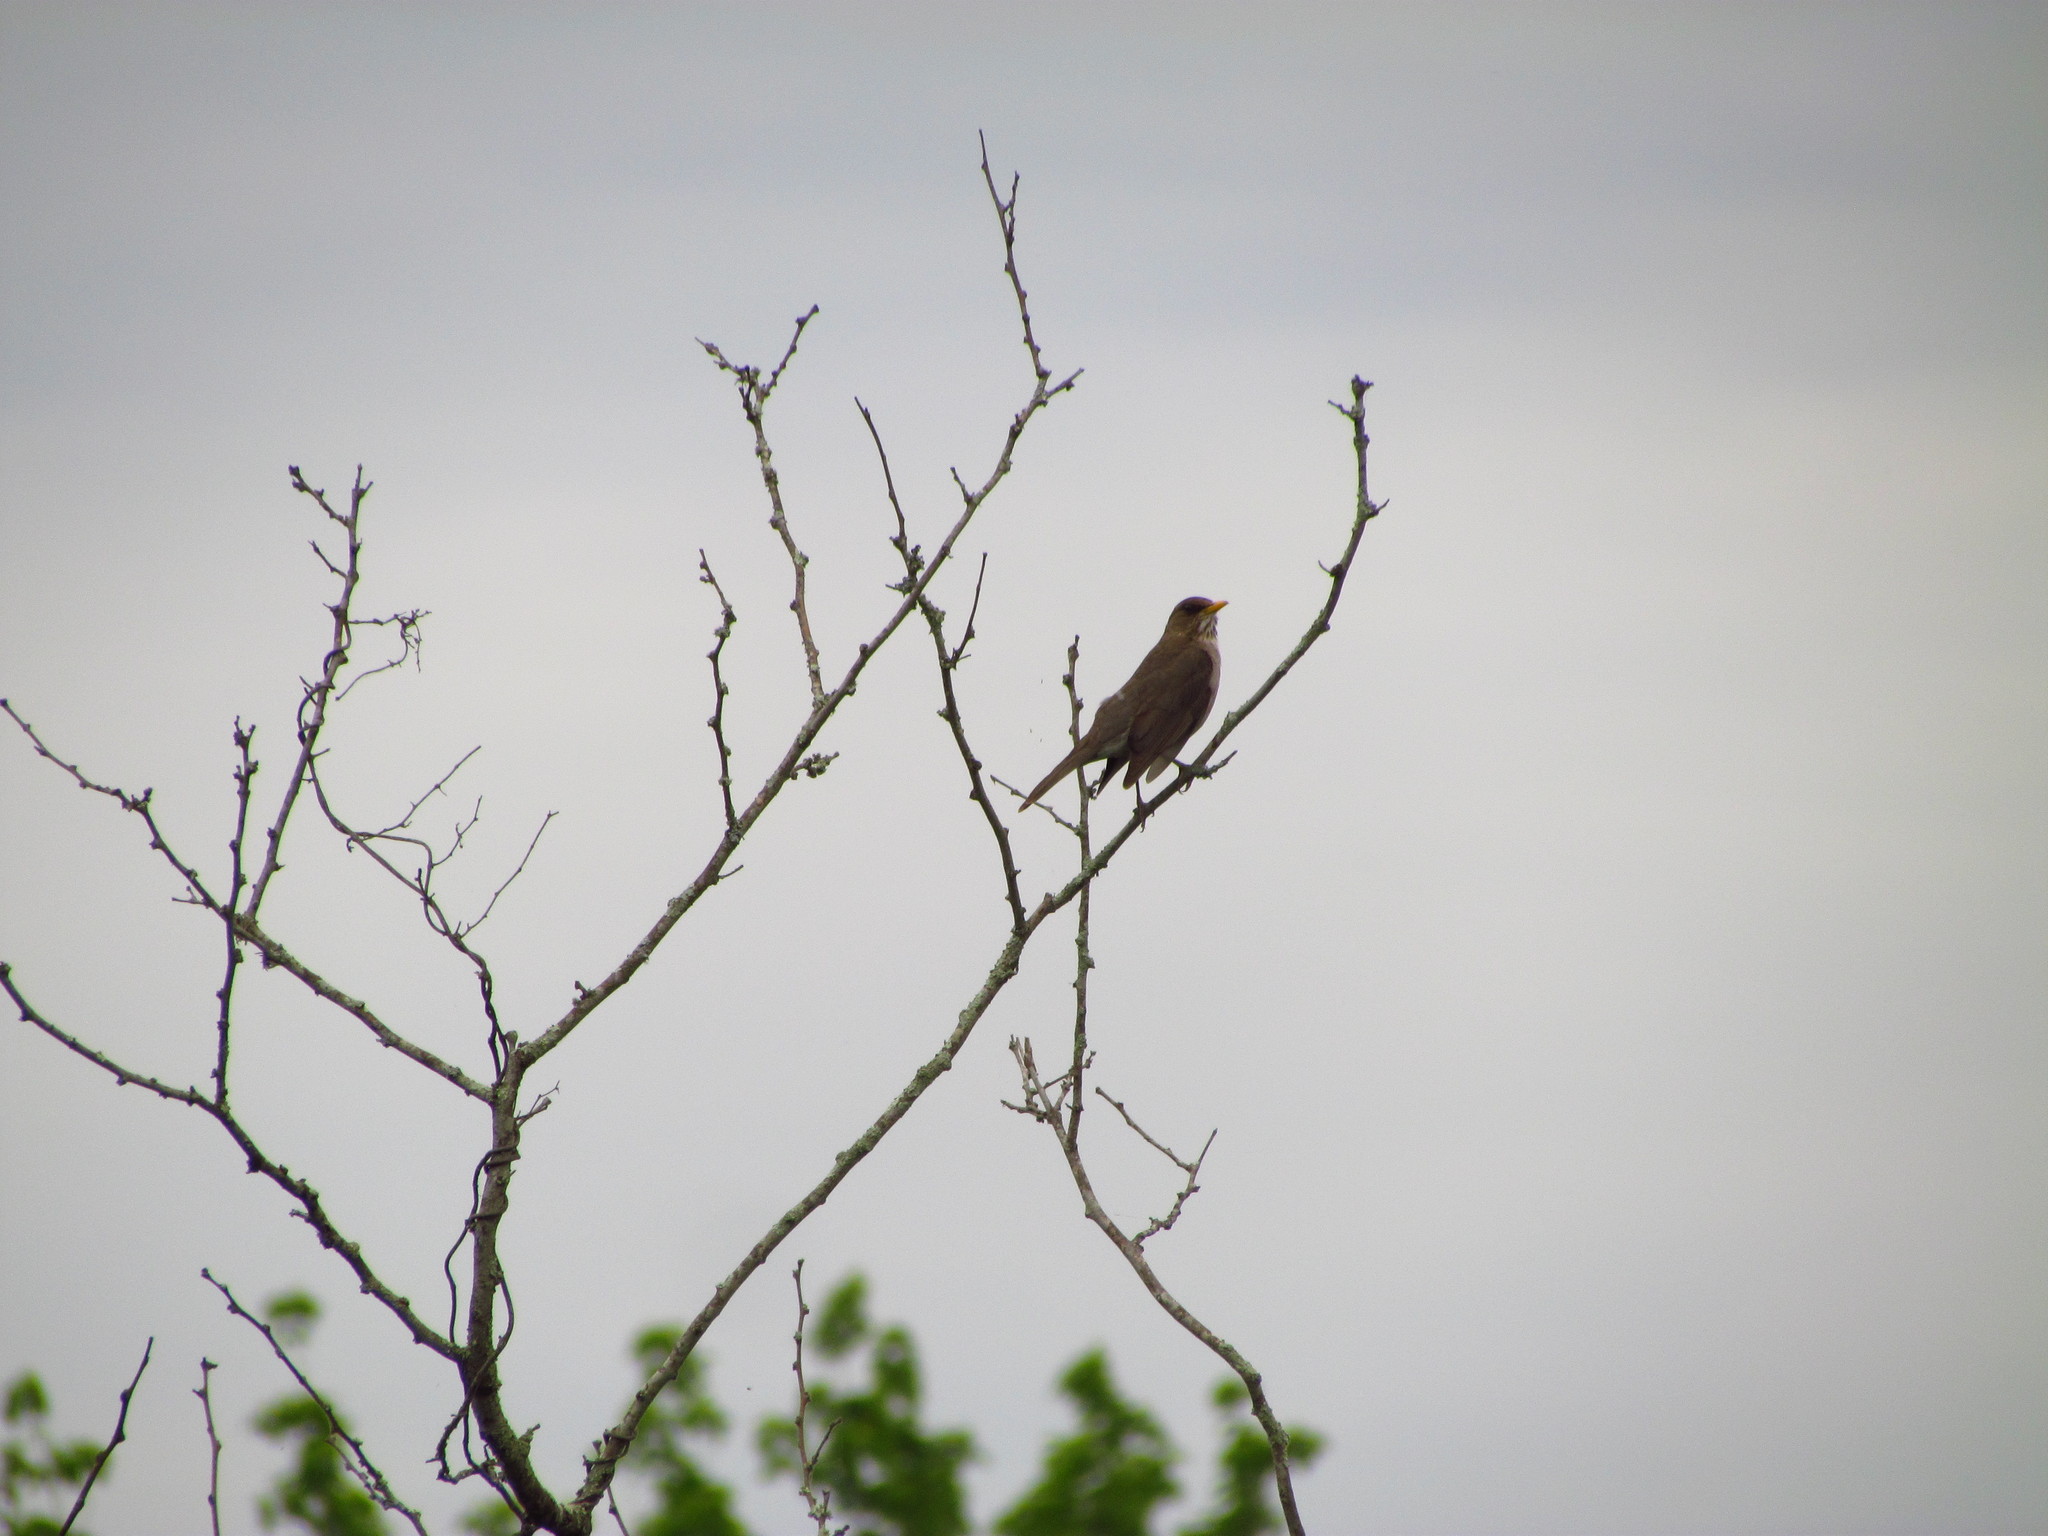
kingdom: Animalia
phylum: Chordata
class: Aves
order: Passeriformes
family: Turdidae
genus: Turdus
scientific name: Turdus amaurochalinus
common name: Creamy-bellied thrush
